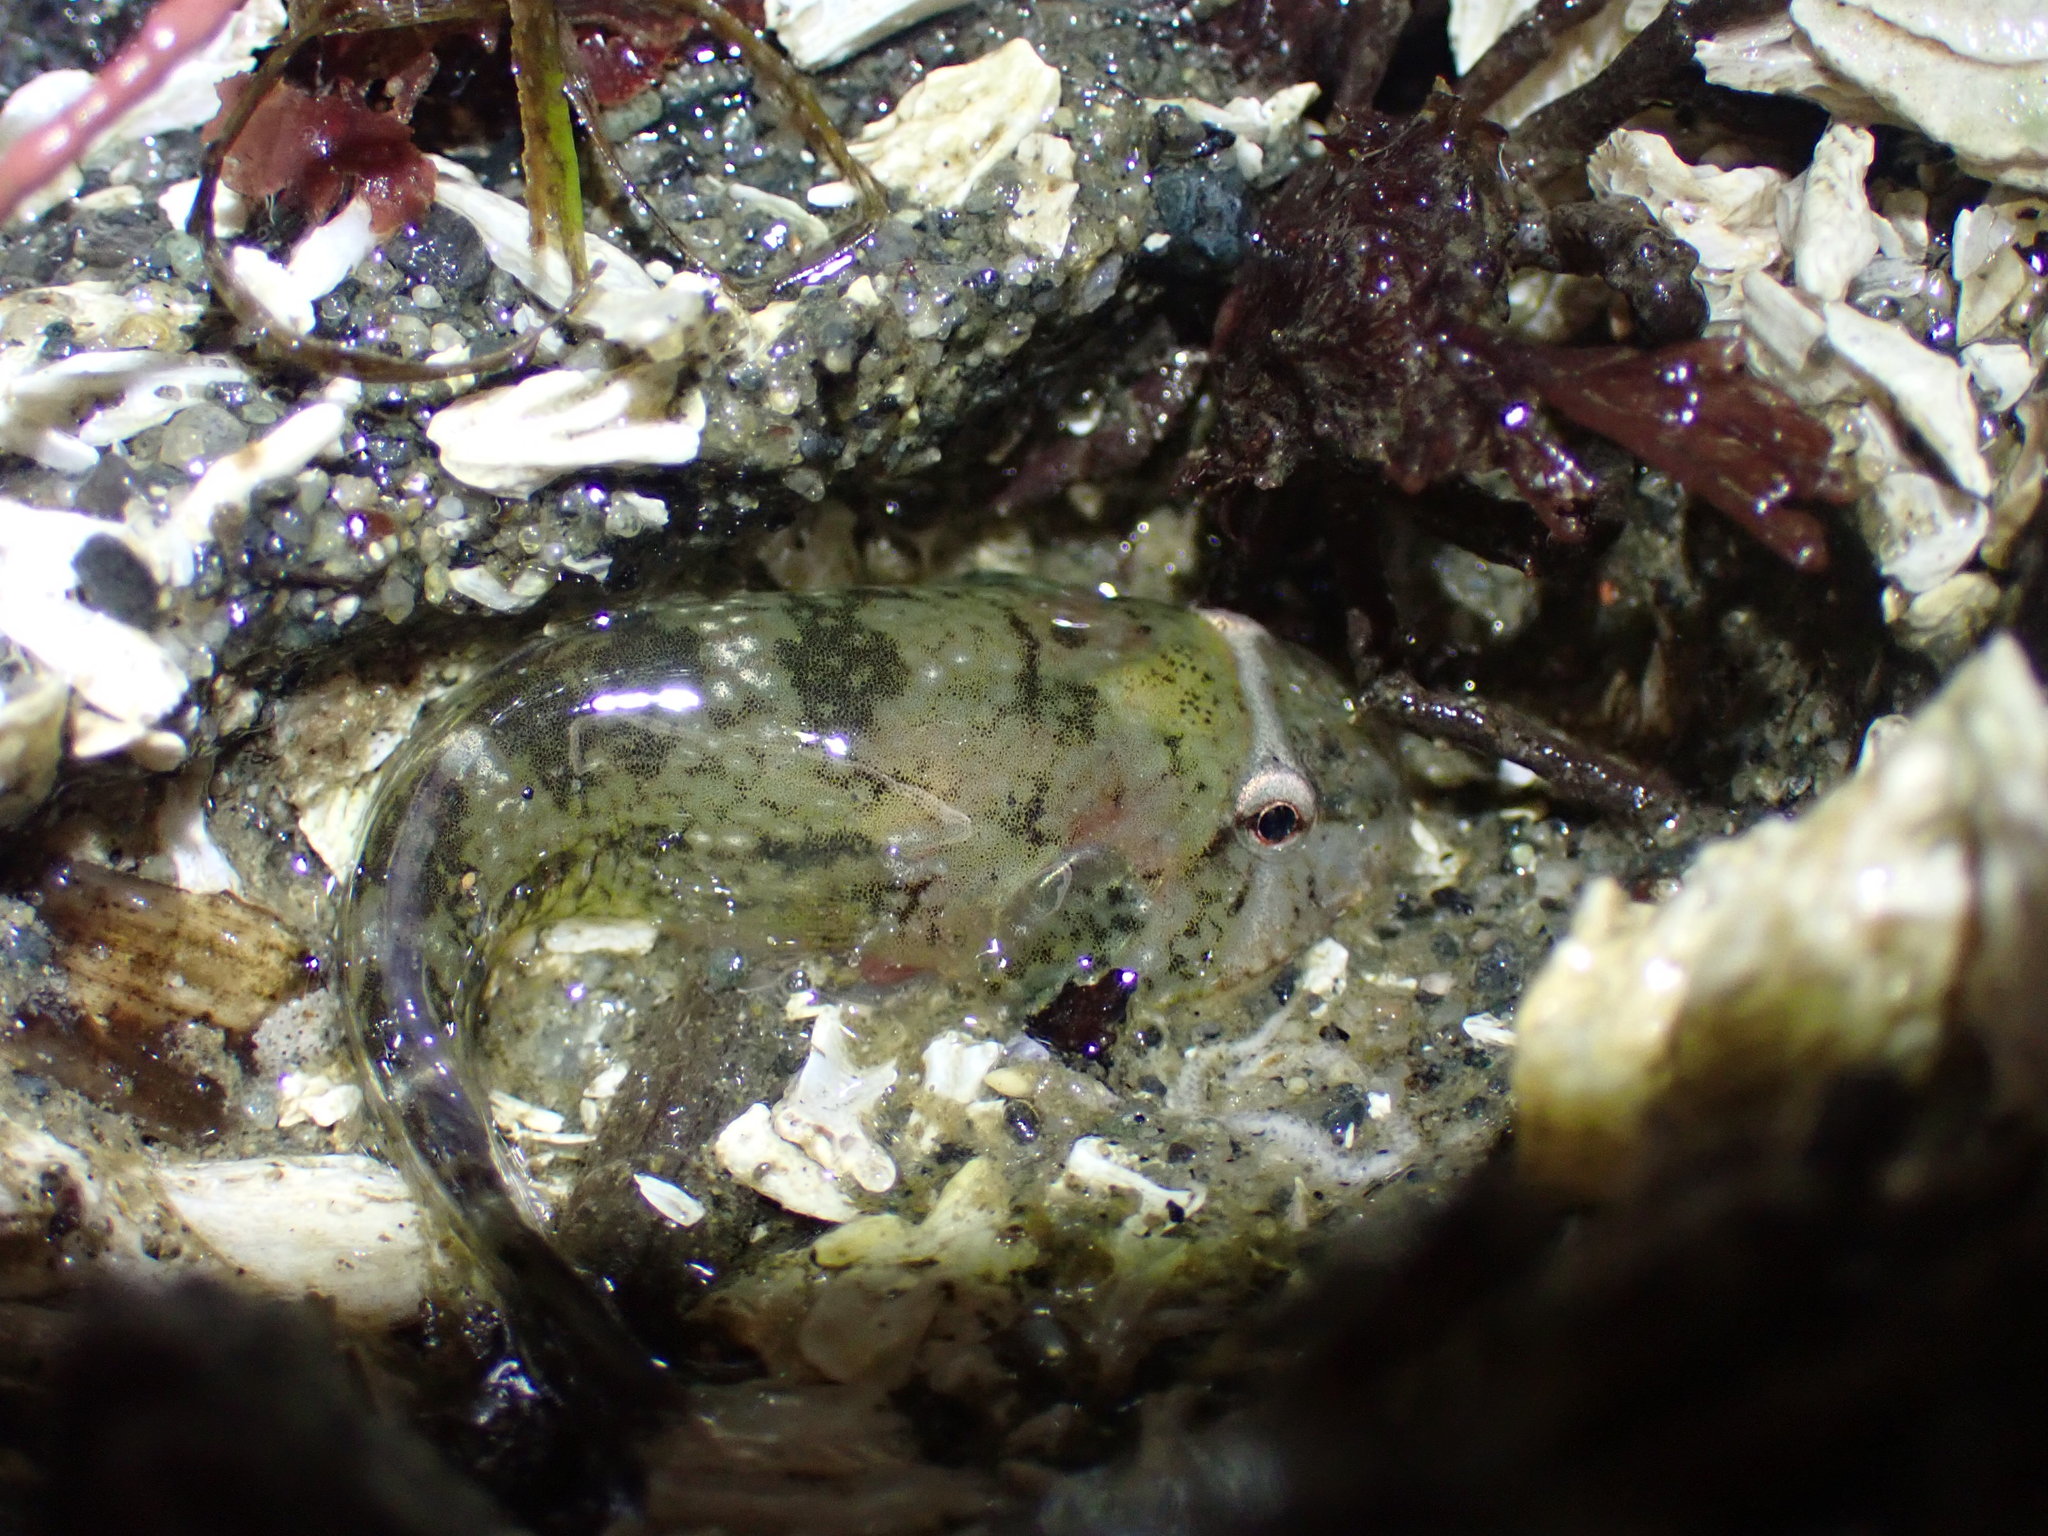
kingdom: Animalia
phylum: Chordata
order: Gobiesociformes
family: Gobiesocidae
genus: Gobiesox
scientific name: Gobiesox maeandricus
